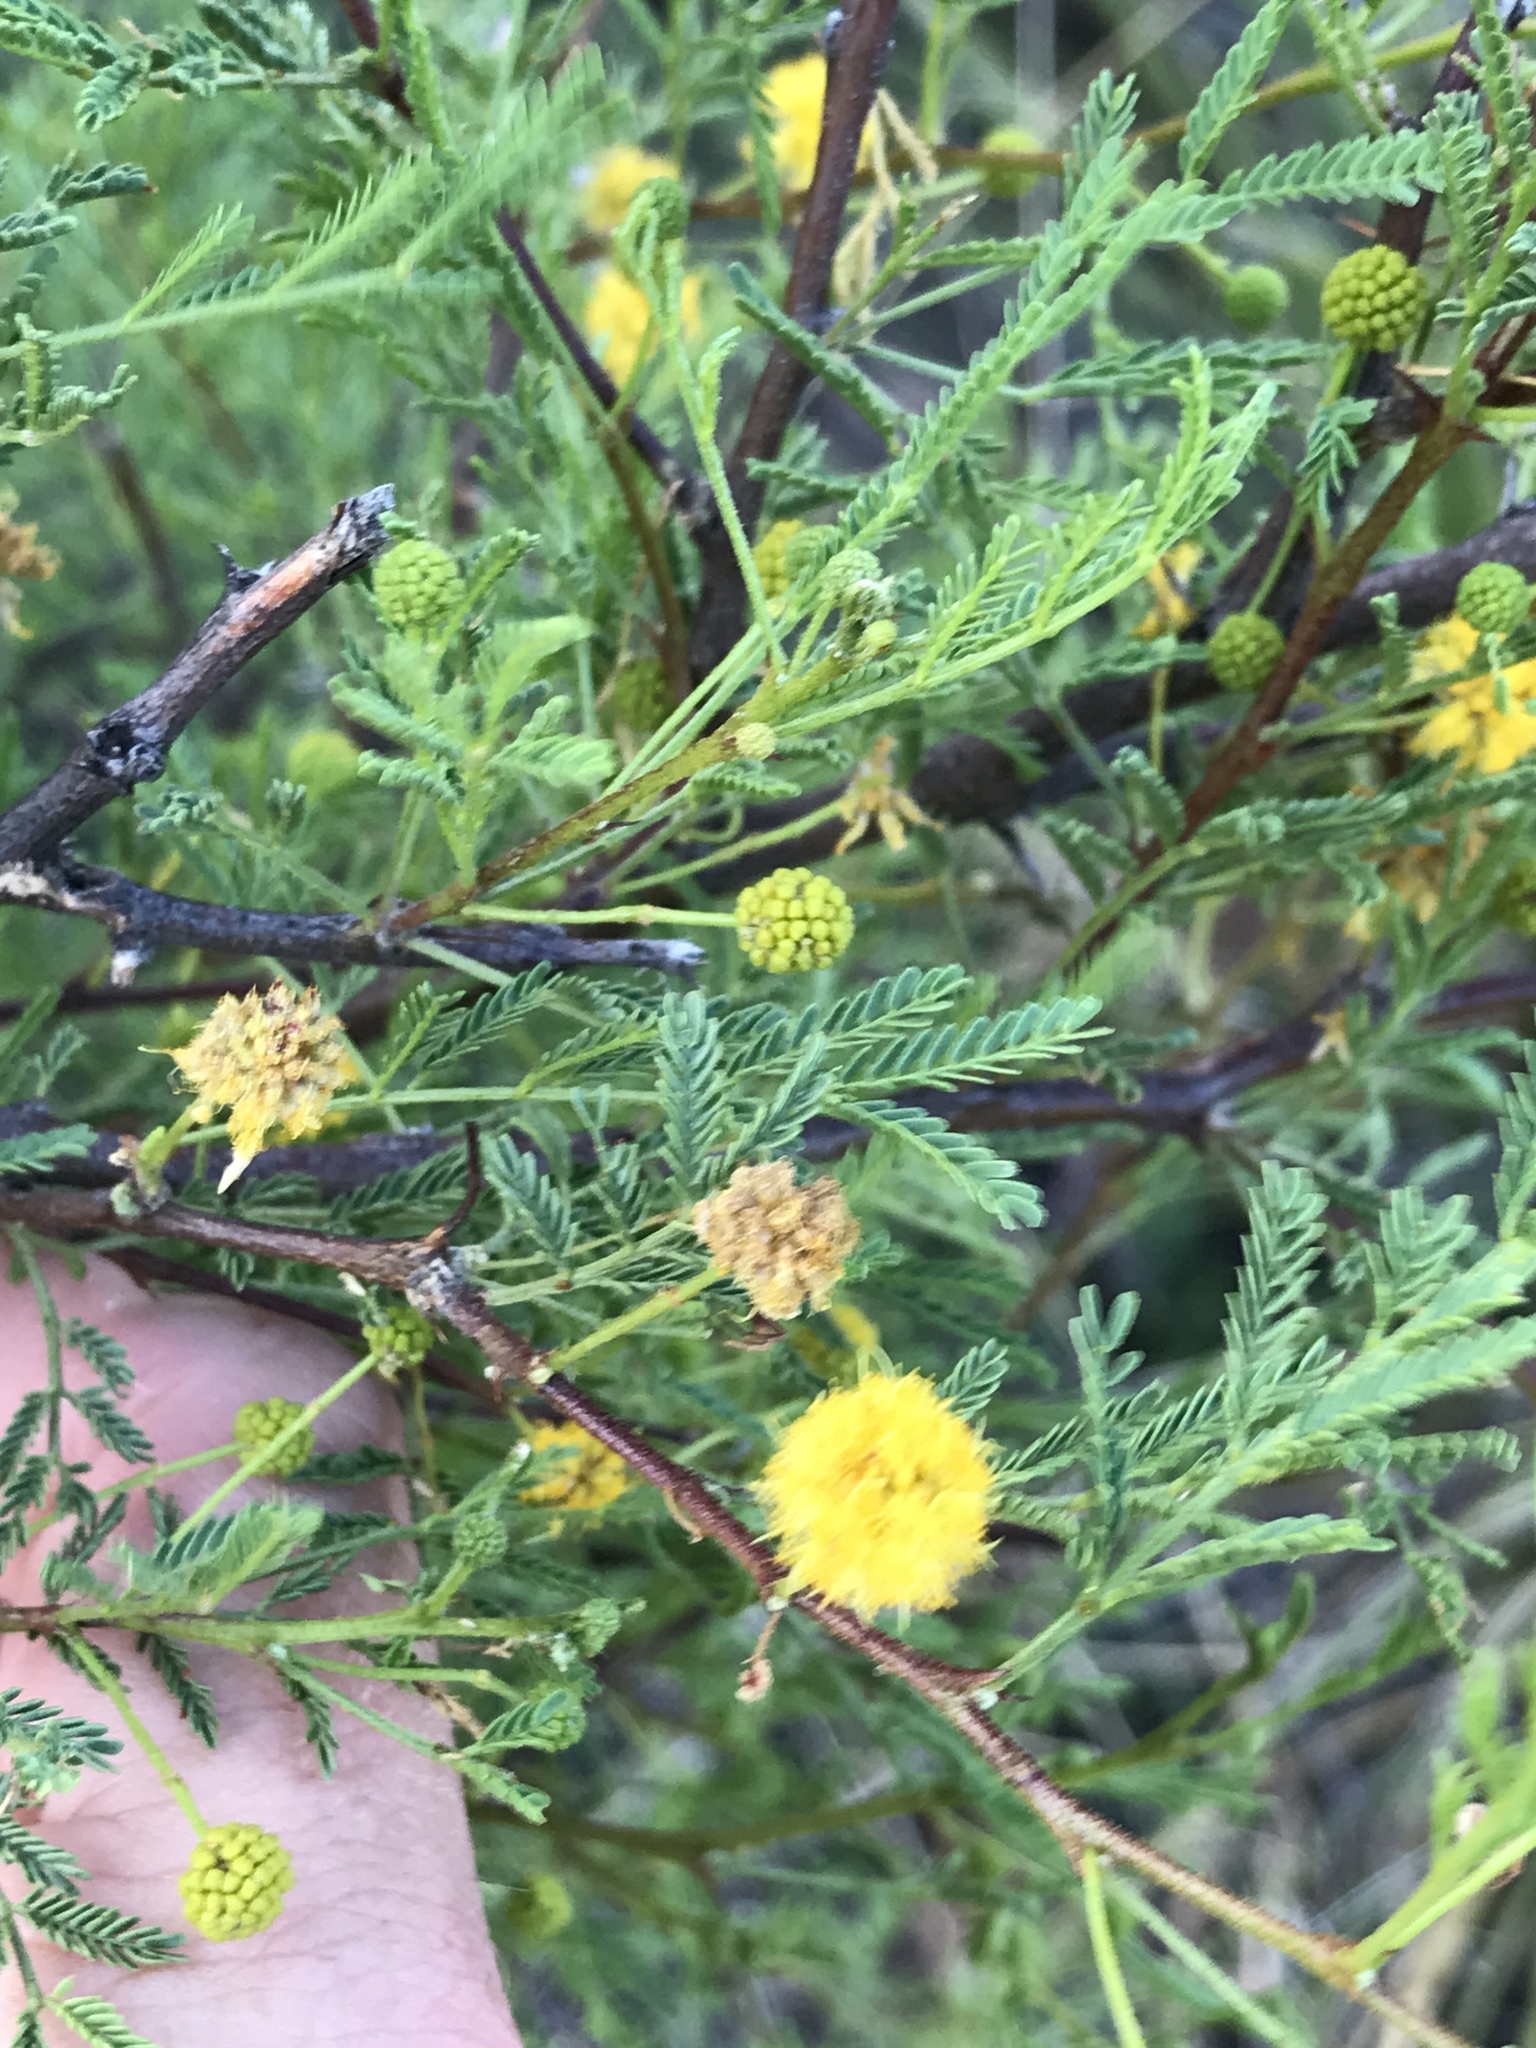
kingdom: Plantae
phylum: Tracheophyta
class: Magnoliopsida
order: Fabales
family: Fabaceae
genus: Vachellia
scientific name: Vachellia constricta
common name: Mescat acacia
